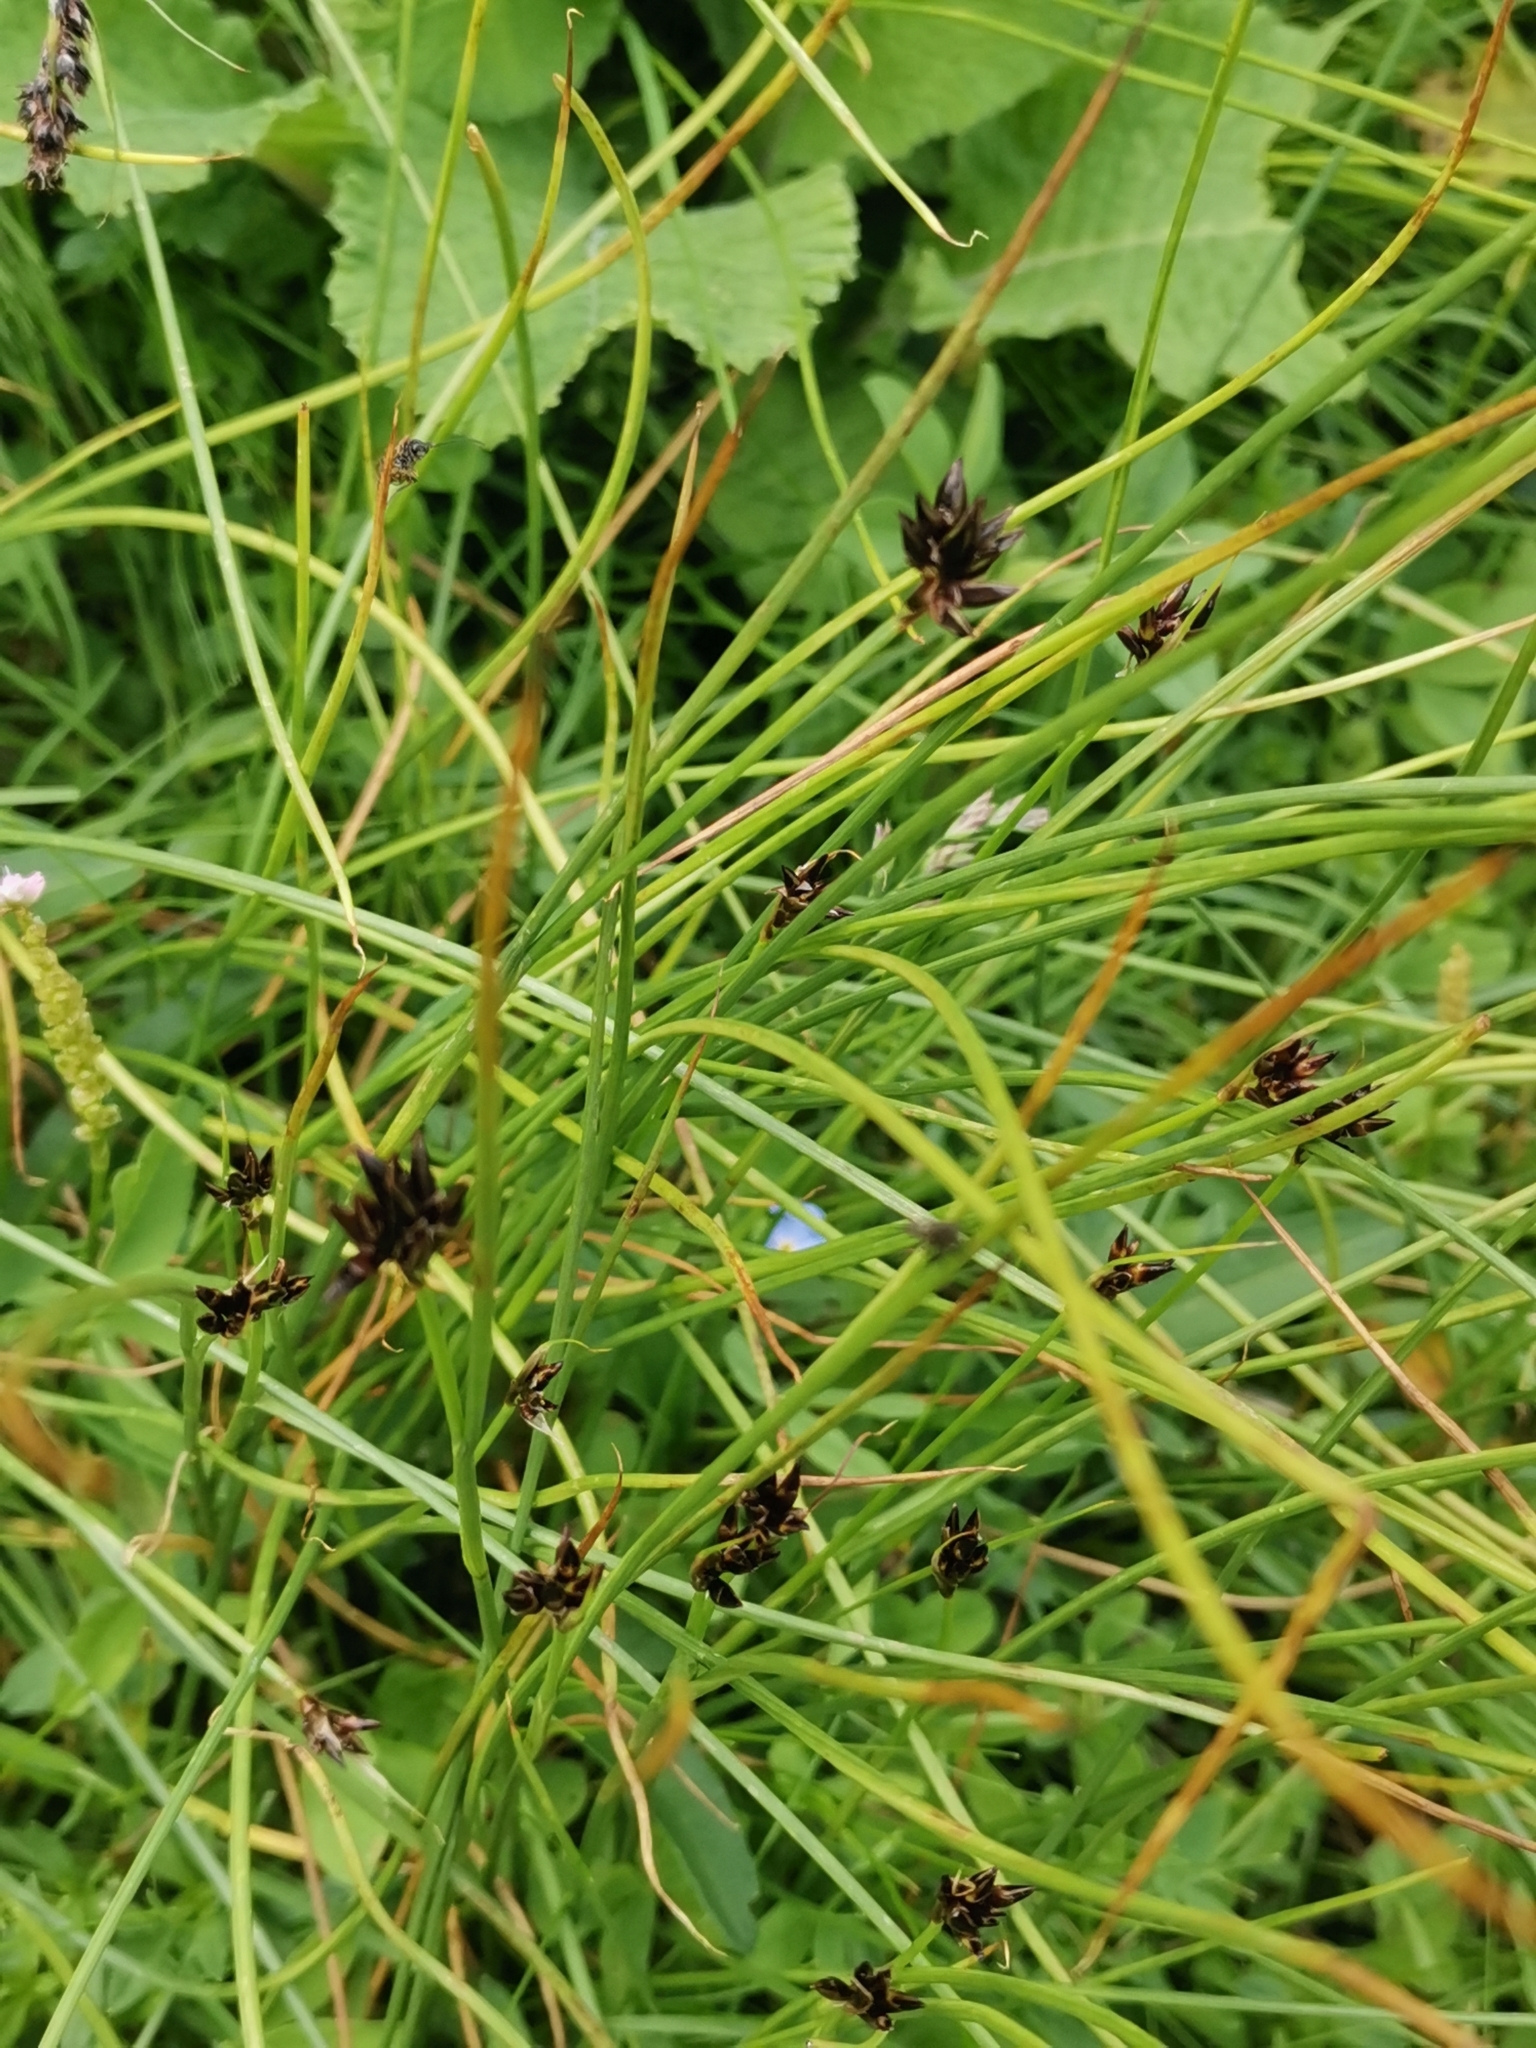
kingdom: Plantae
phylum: Tracheophyta
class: Liliopsida
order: Poales
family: Juncaceae
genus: Juncus
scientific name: Juncus jacquinii
